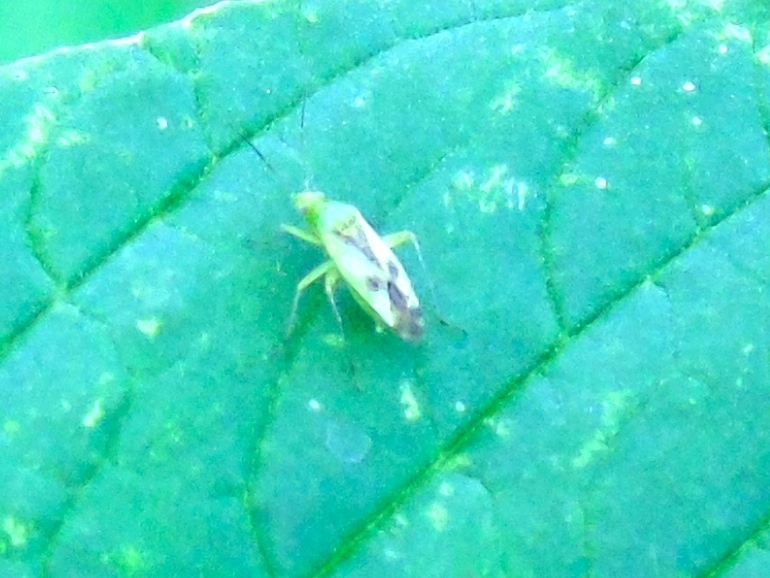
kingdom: Animalia
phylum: Arthropoda
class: Insecta
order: Hemiptera
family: Miridae
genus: Reuteroscopus
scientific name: Reuteroscopus
